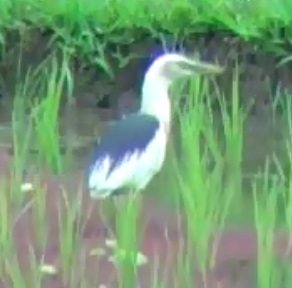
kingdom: Animalia
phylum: Chordata
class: Aves
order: Pelecaniformes
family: Ardeidae
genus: Ardeola
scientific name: Ardeola speciosa
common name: Javan pond heron
